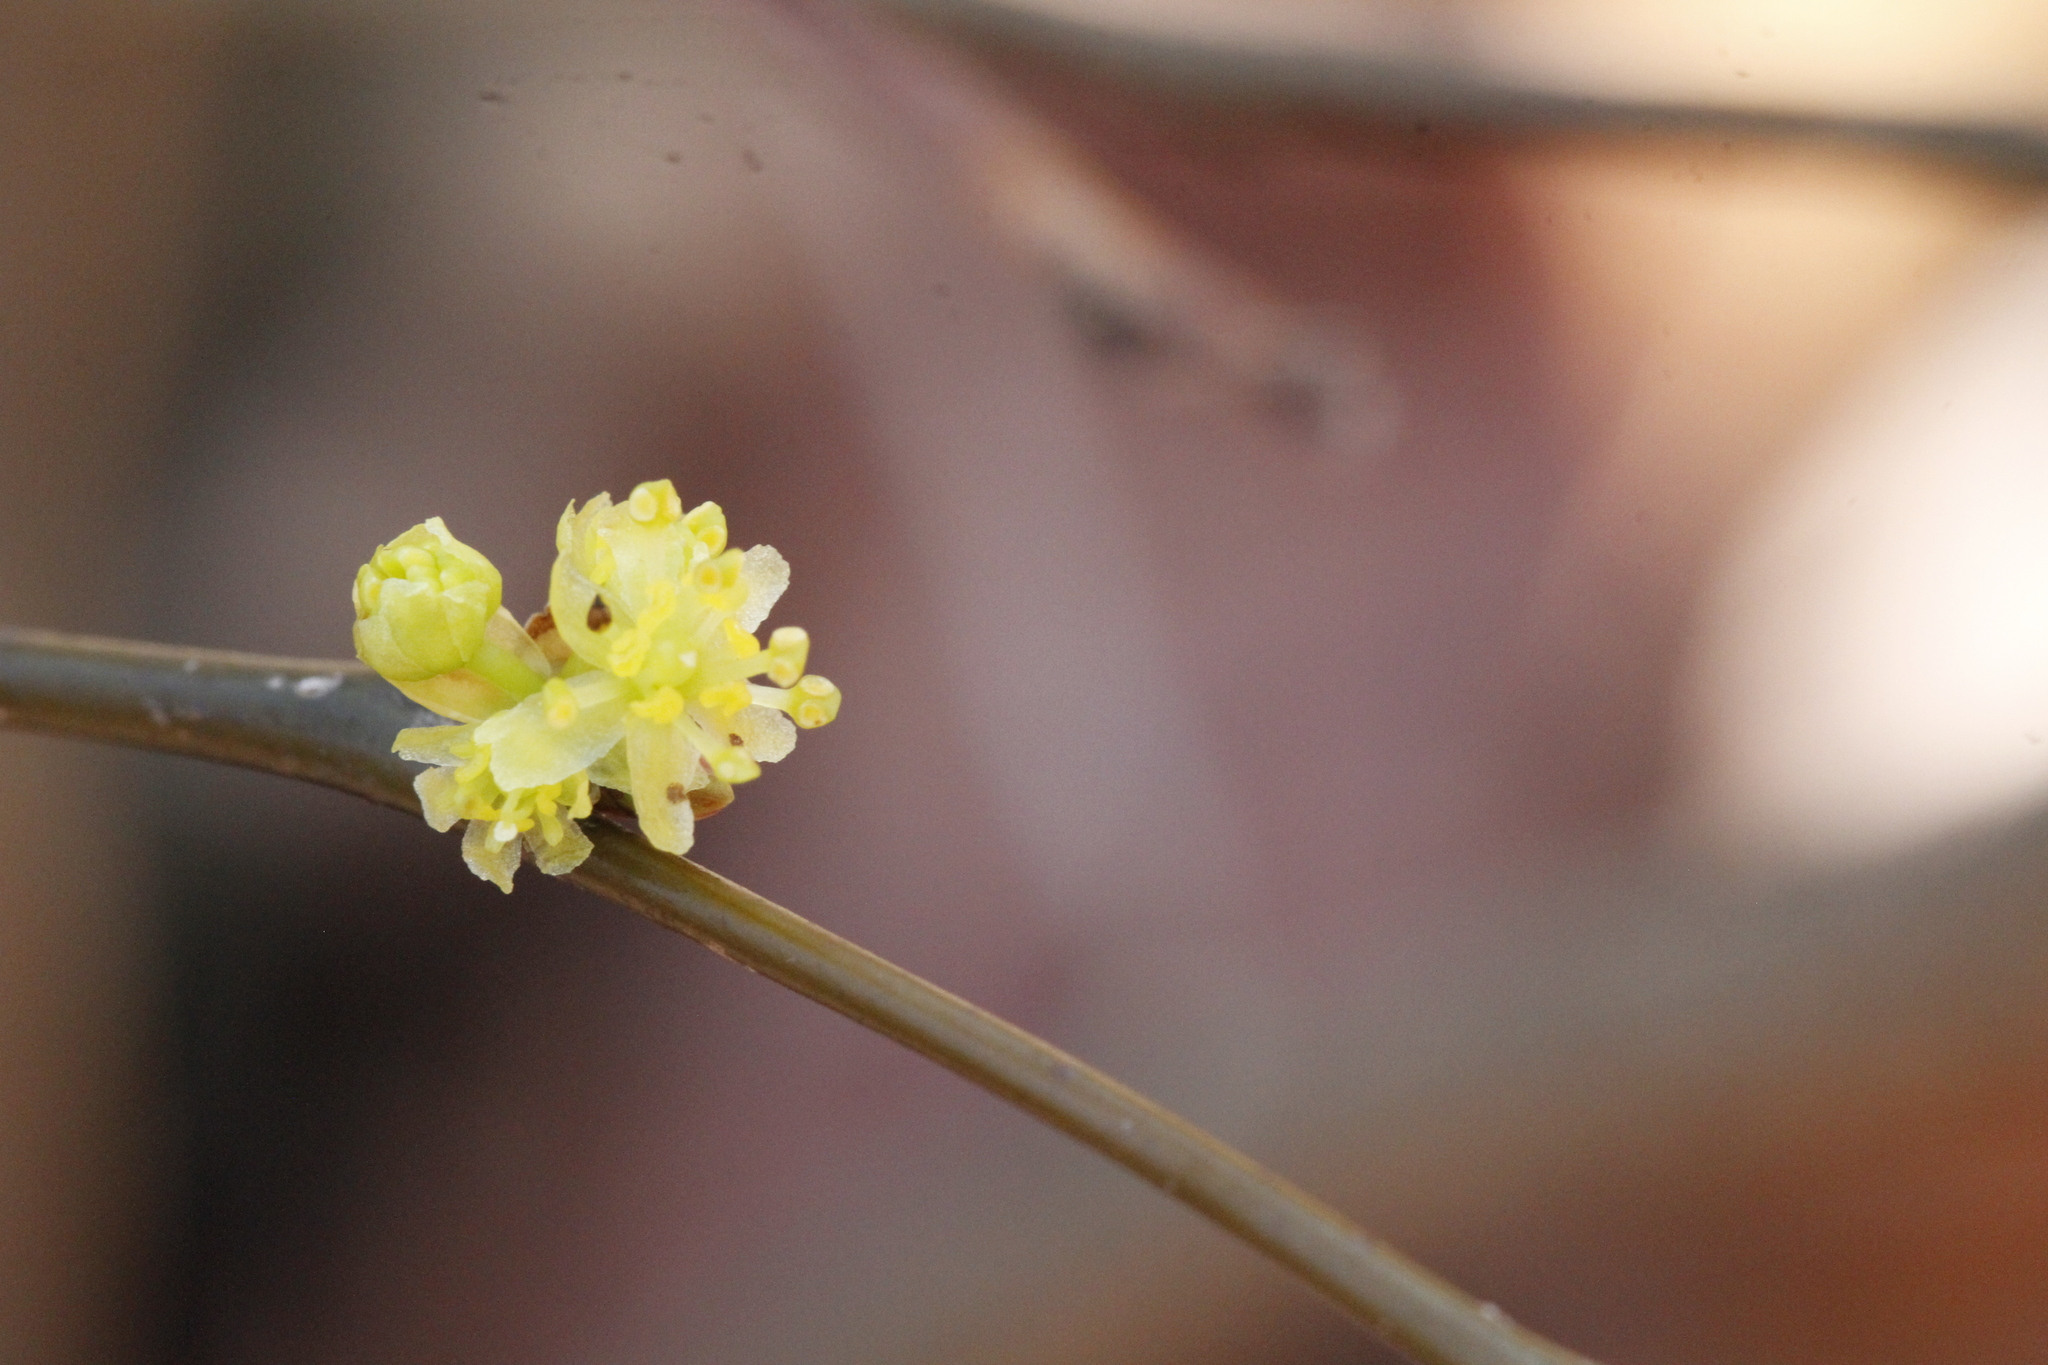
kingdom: Plantae
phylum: Tracheophyta
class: Magnoliopsida
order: Laurales
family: Lauraceae
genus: Lindera
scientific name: Lindera benzoin
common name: Spicebush
